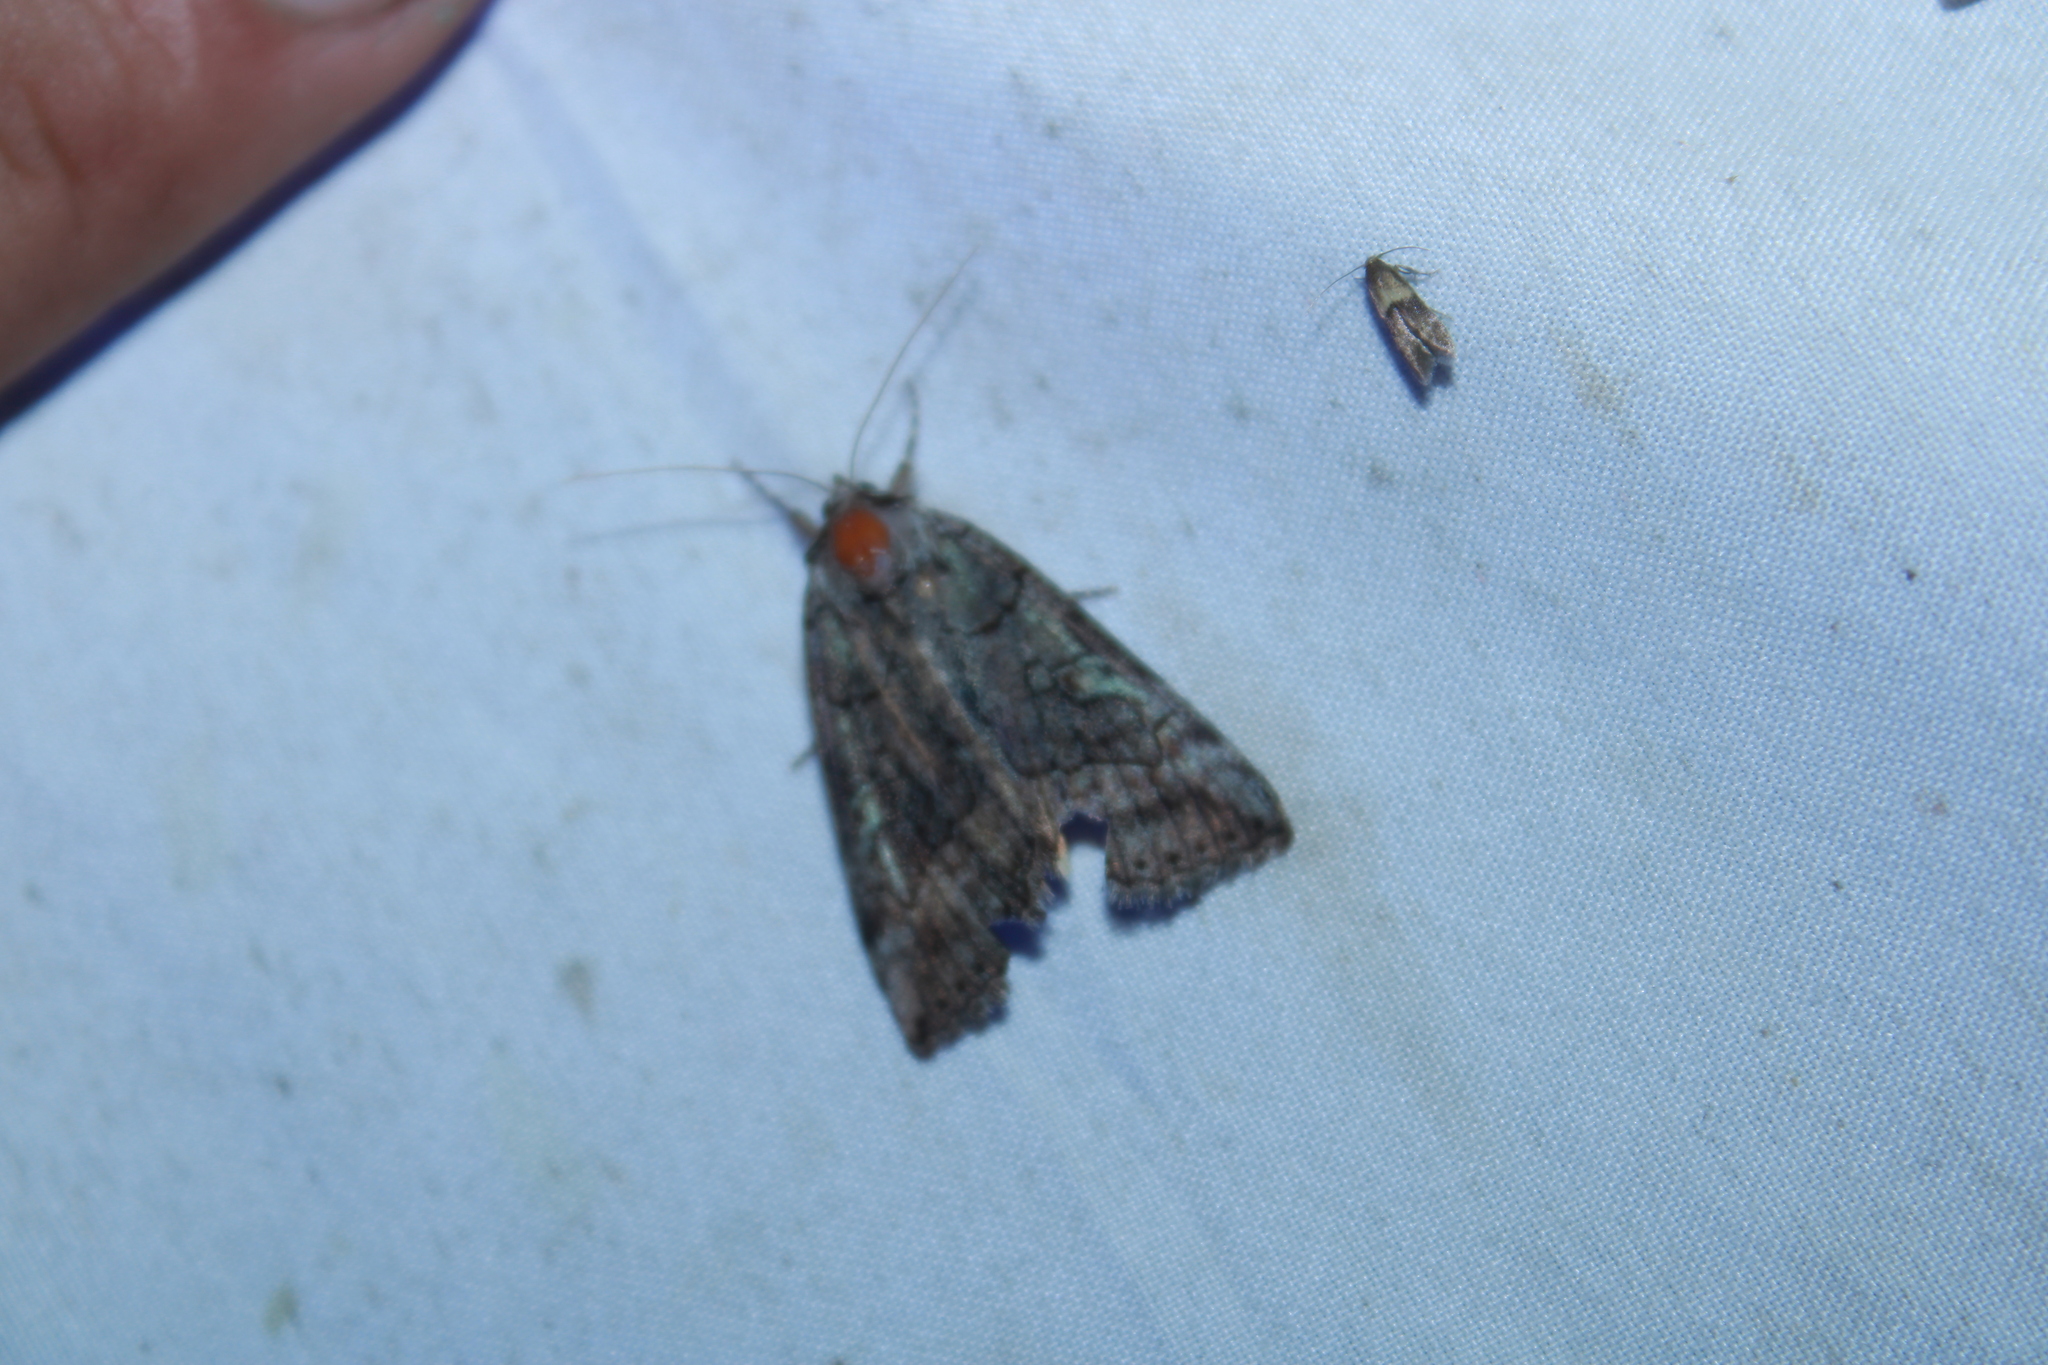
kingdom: Animalia
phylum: Arthropoda
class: Insecta
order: Lepidoptera
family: Erebidae
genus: Catocala
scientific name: Catocala similis
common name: Similar underwing
